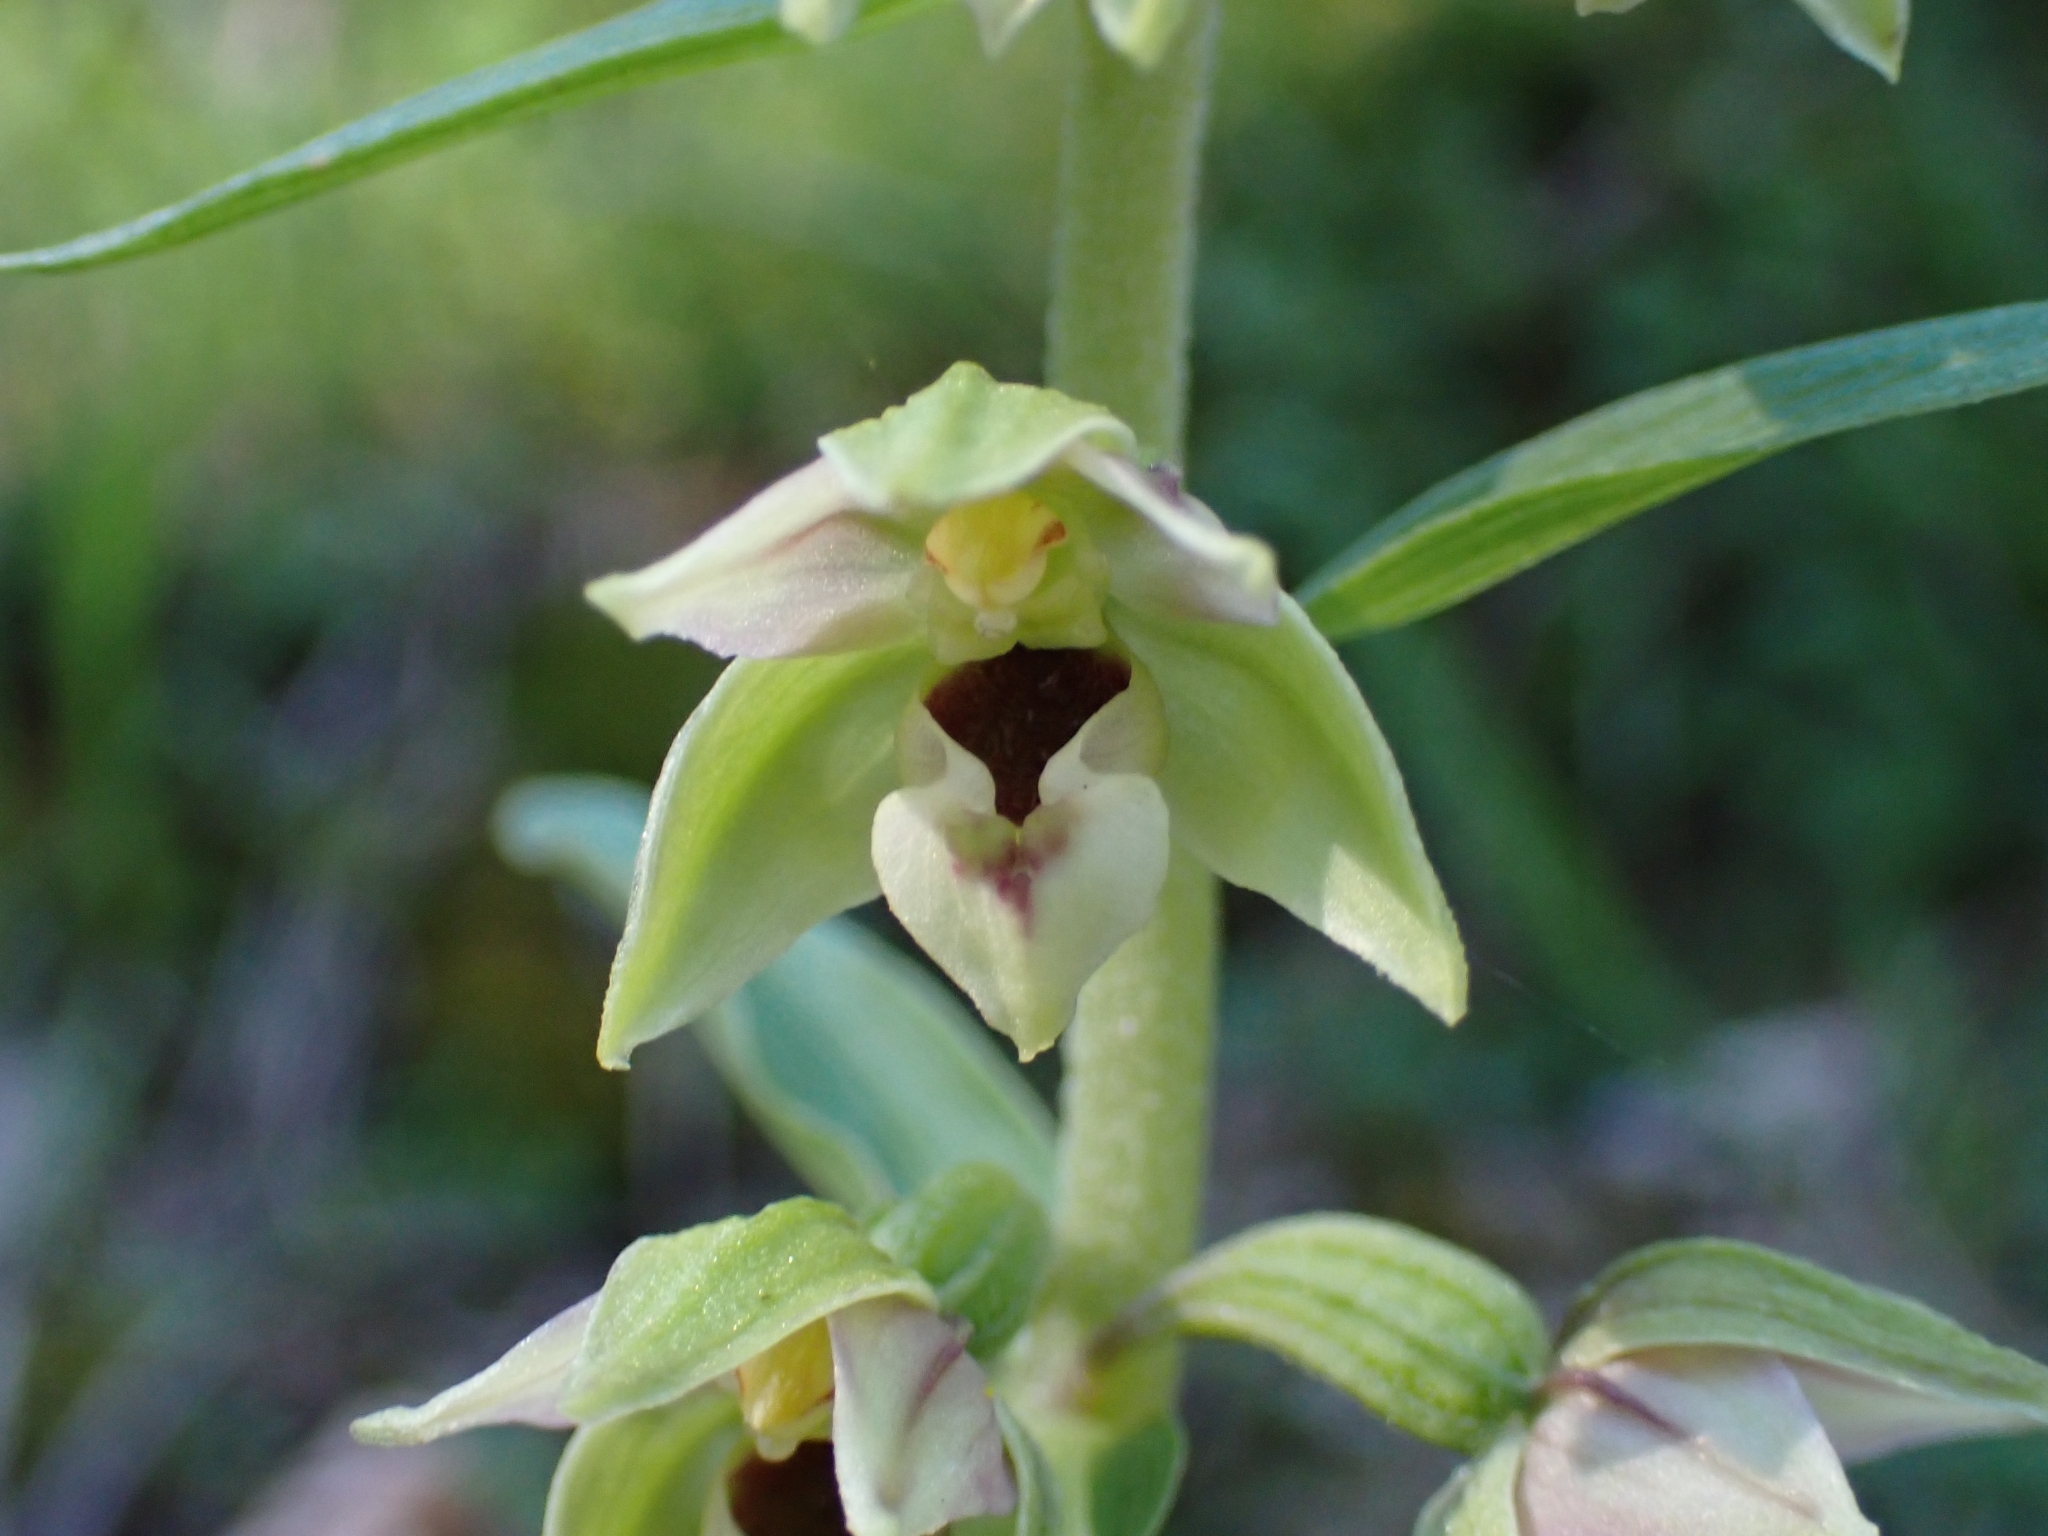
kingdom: Plantae
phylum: Tracheophyta
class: Liliopsida
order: Asparagales
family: Orchidaceae
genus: Epipactis
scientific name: Epipactis helleborine
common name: Broad-leaved helleborine
